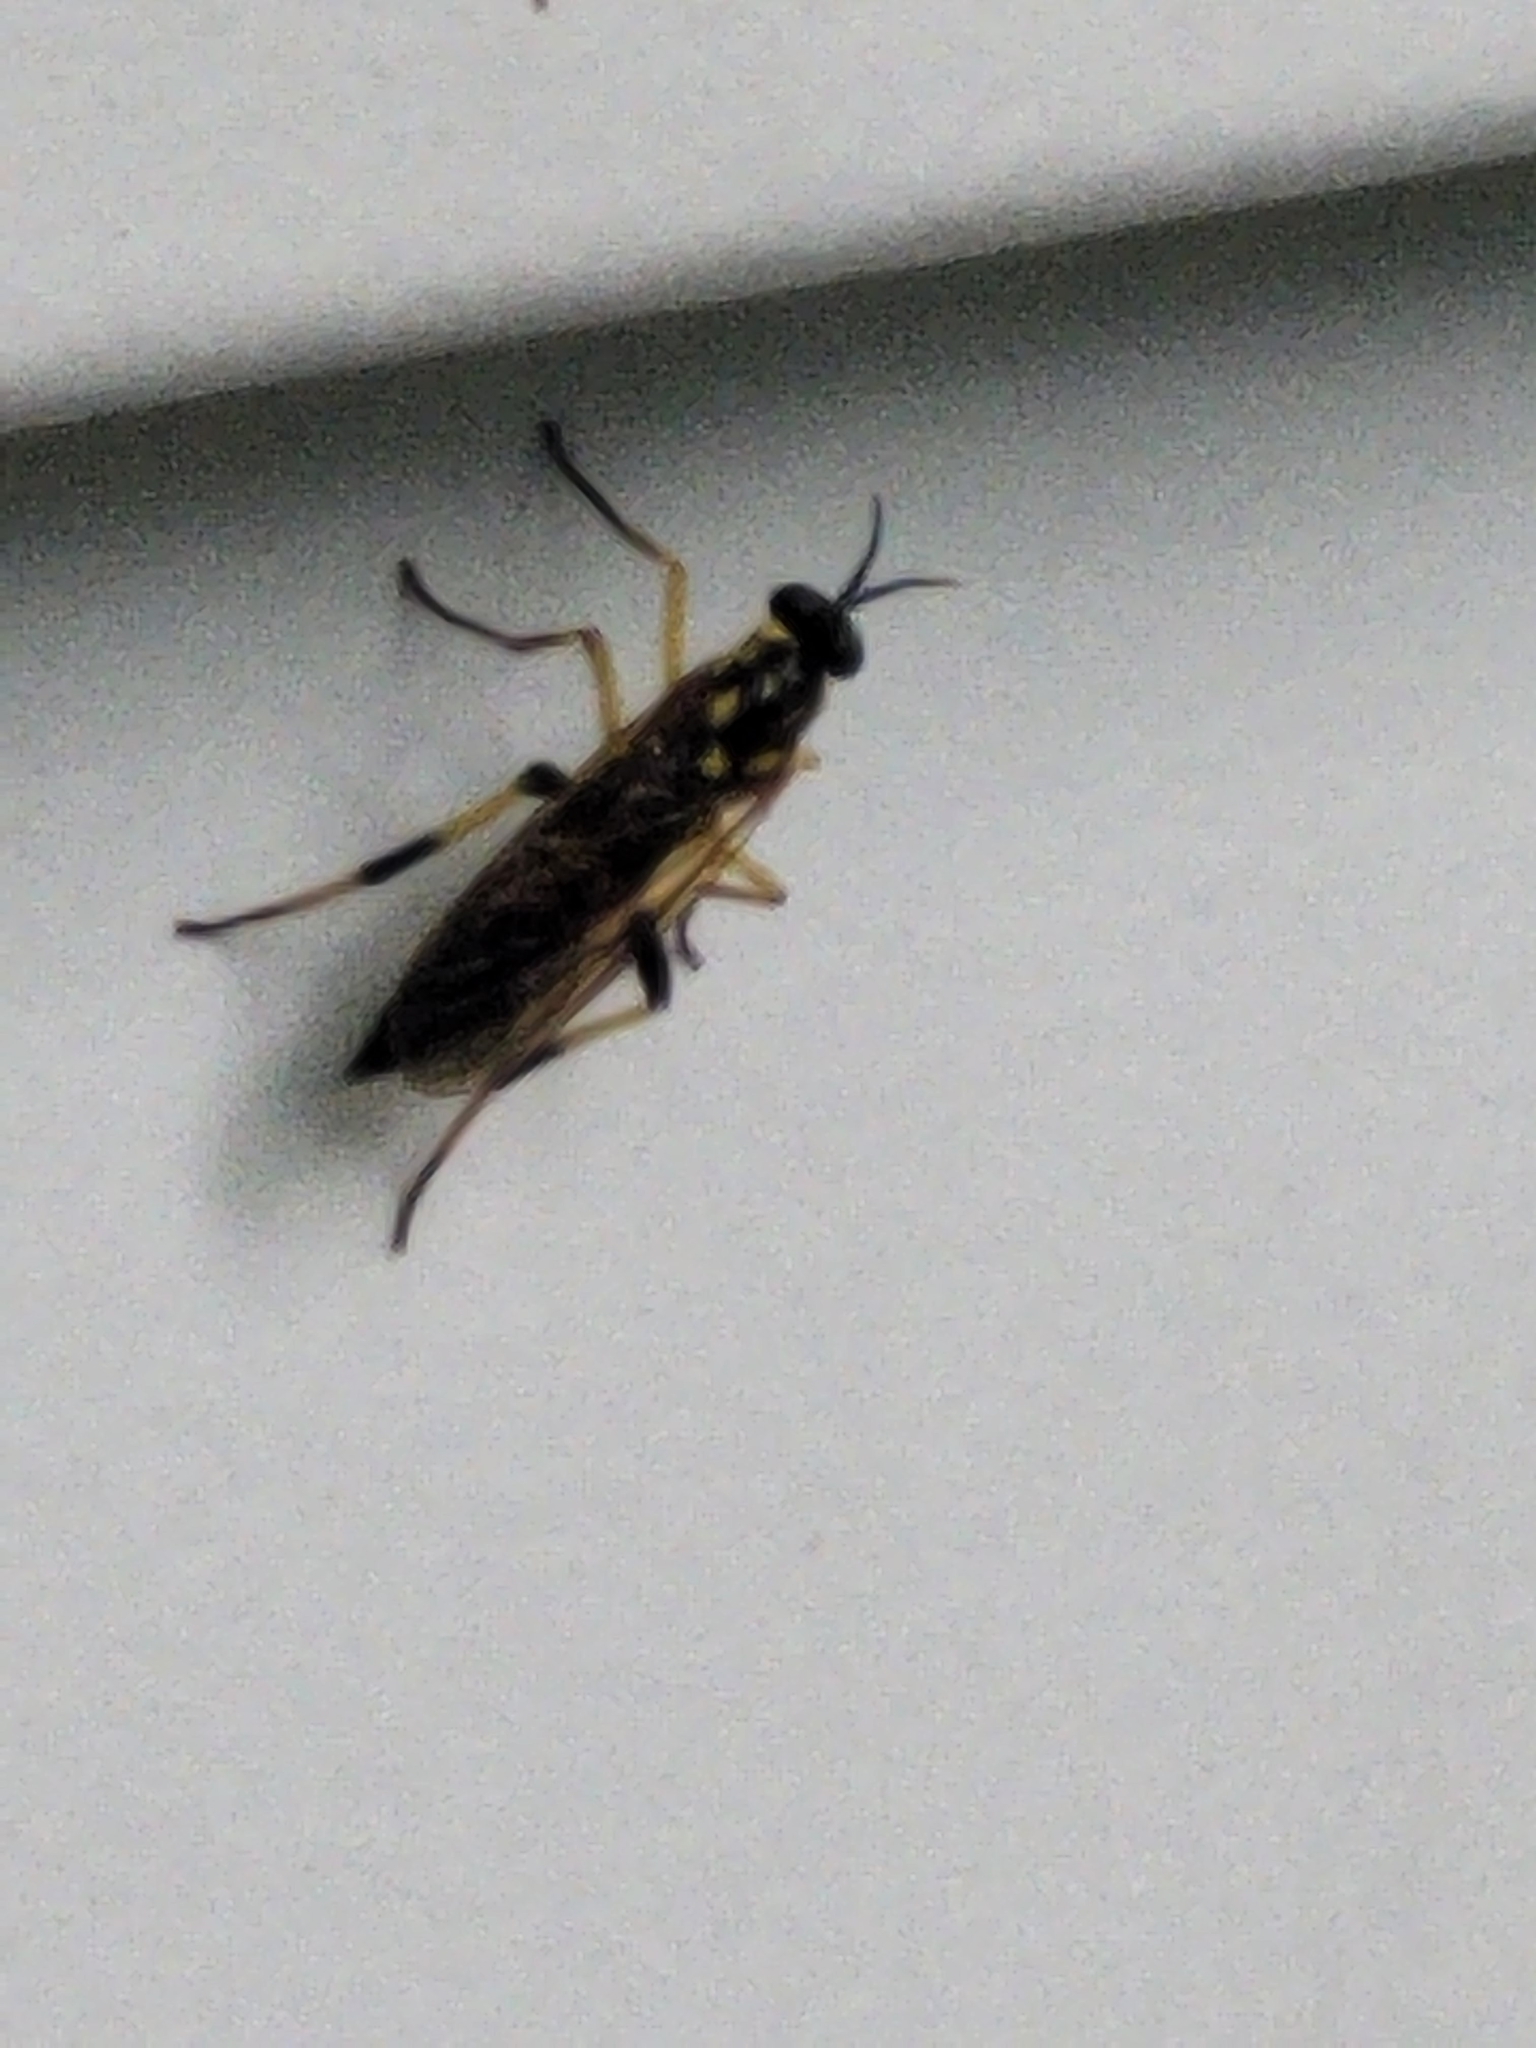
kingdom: Animalia
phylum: Arthropoda
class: Insecta
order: Diptera
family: Xylomyidae
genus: Xylomya
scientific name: Xylomya terminalis
